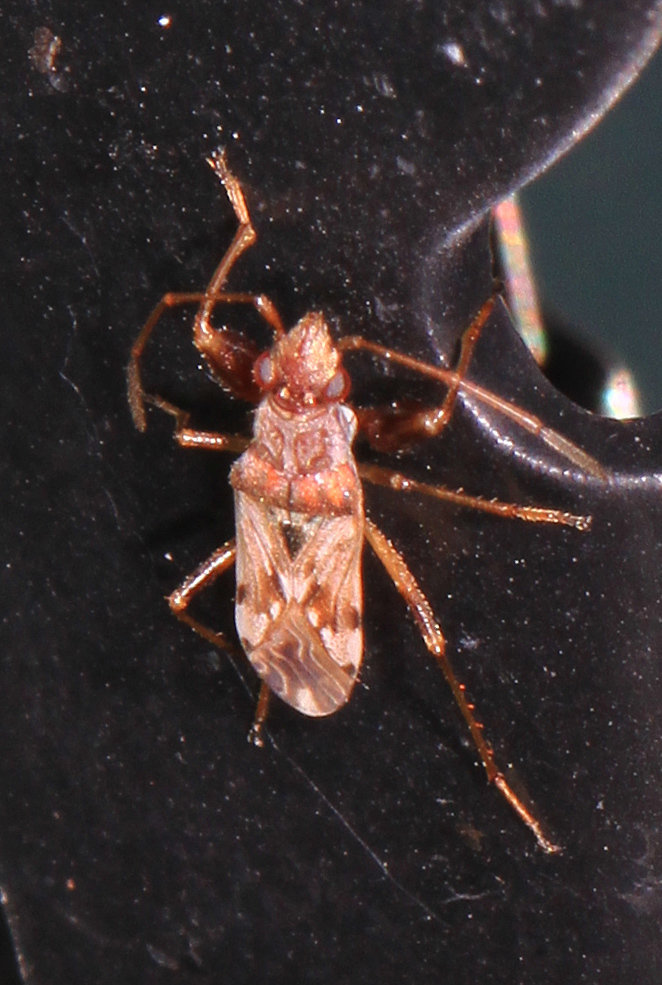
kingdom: Animalia
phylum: Arthropoda
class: Insecta
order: Hemiptera
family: Rhyparochromidae
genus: Neopamera
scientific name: Neopamera bilobata
